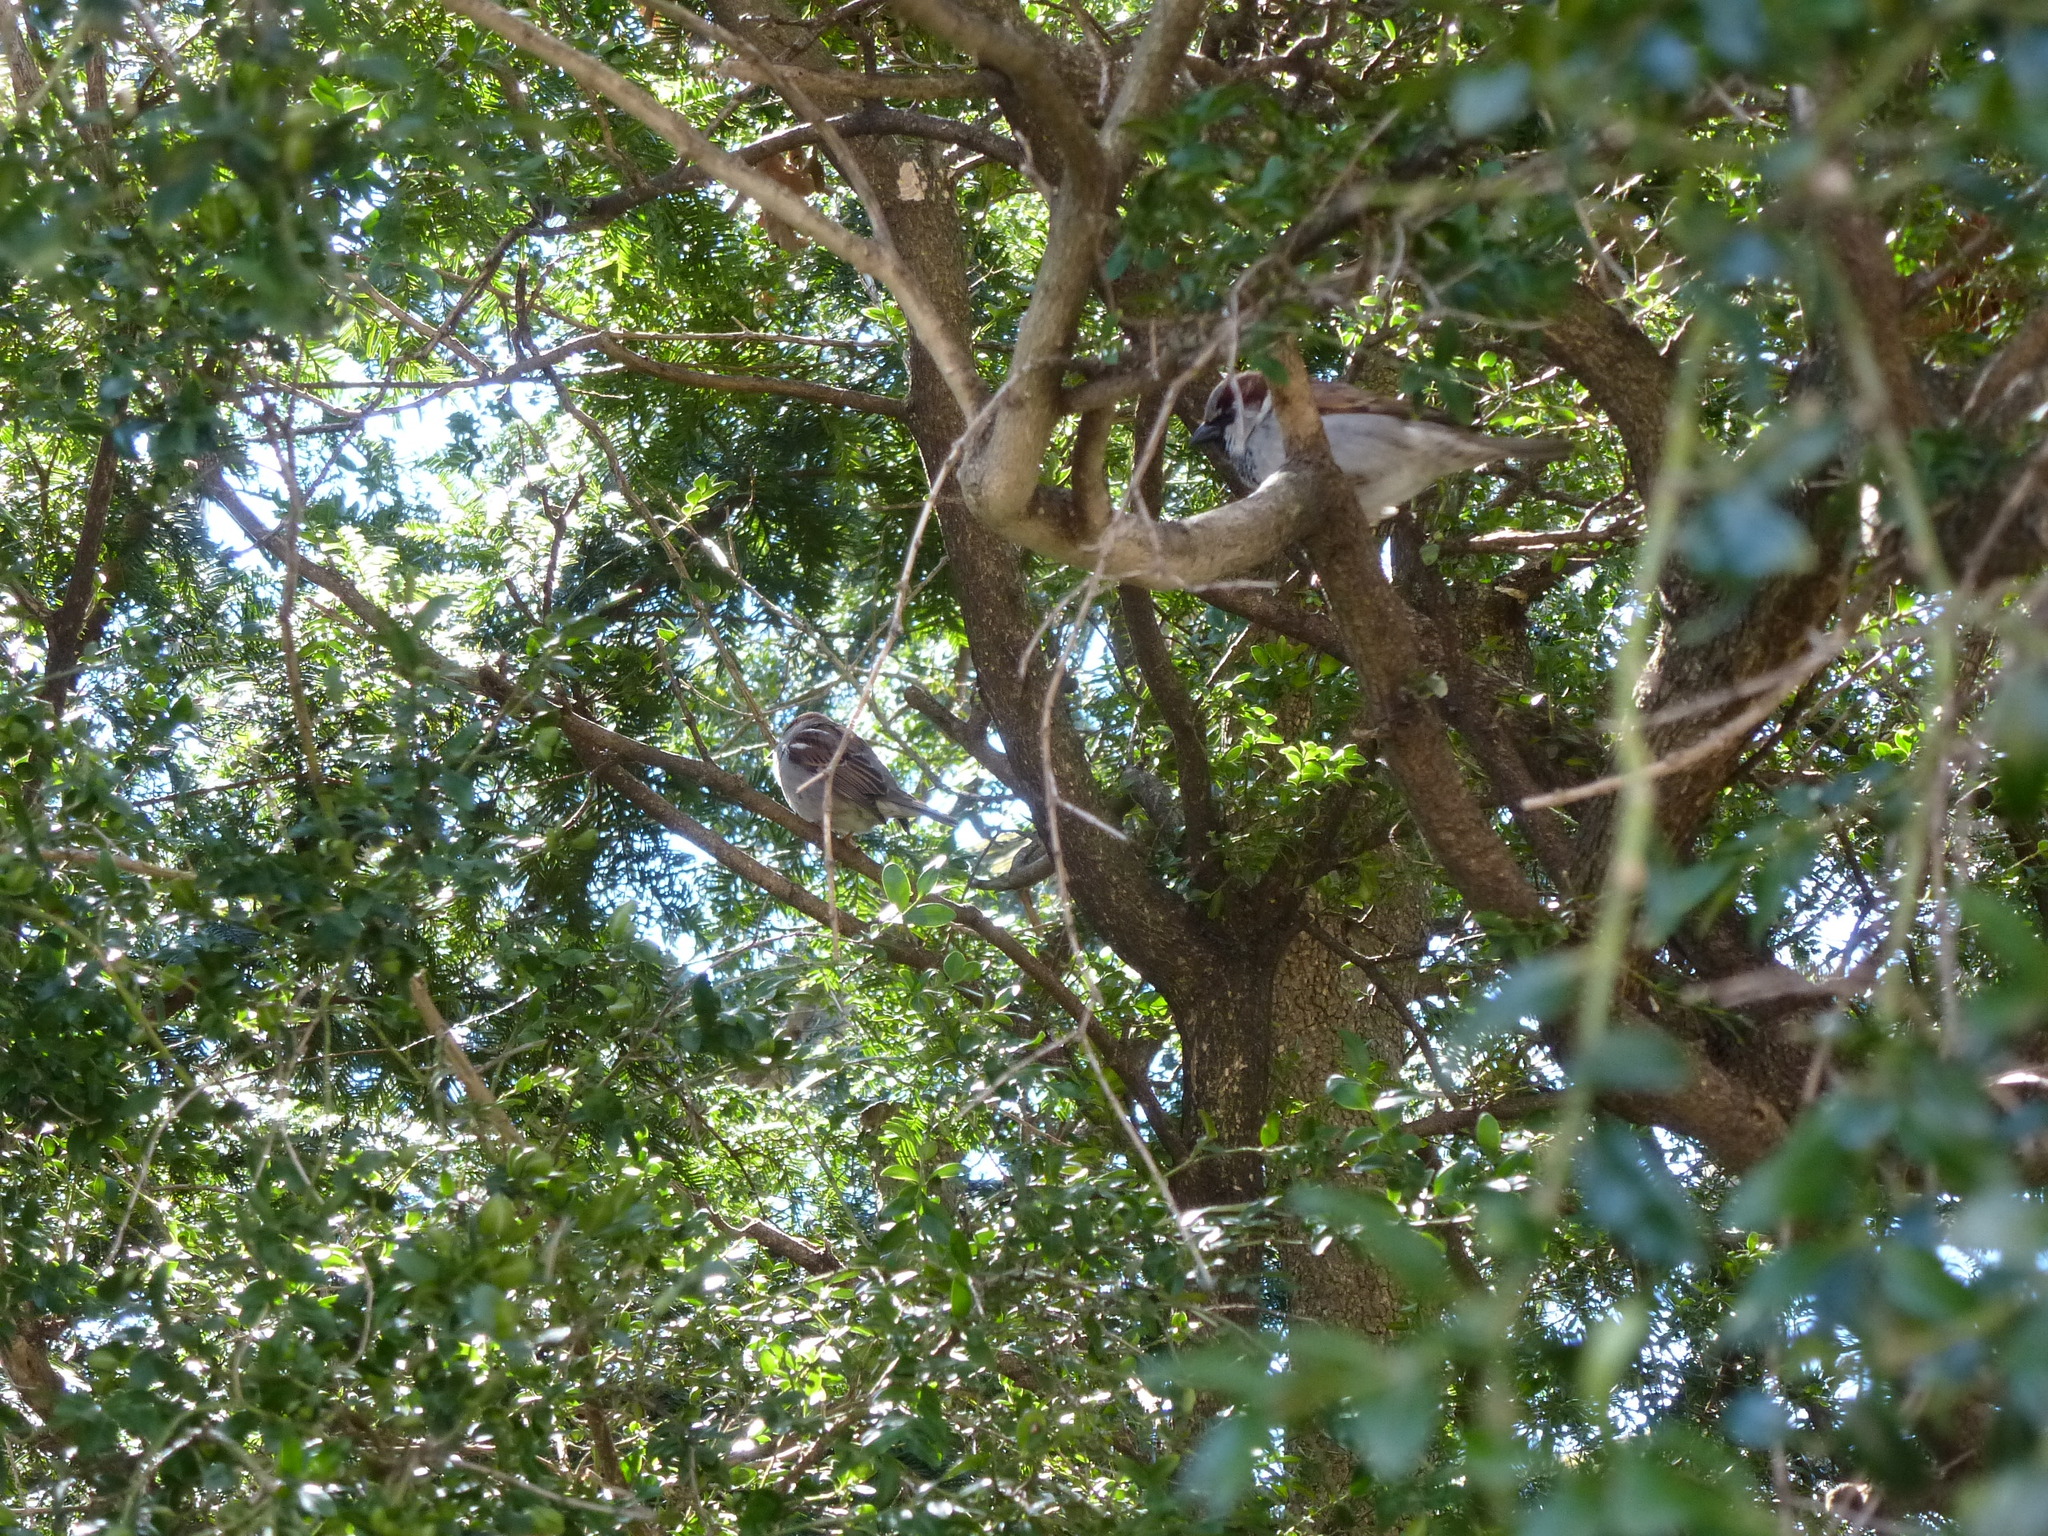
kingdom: Animalia
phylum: Chordata
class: Aves
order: Passeriformes
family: Passeridae
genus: Passer
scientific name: Passer domesticus
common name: House sparrow
